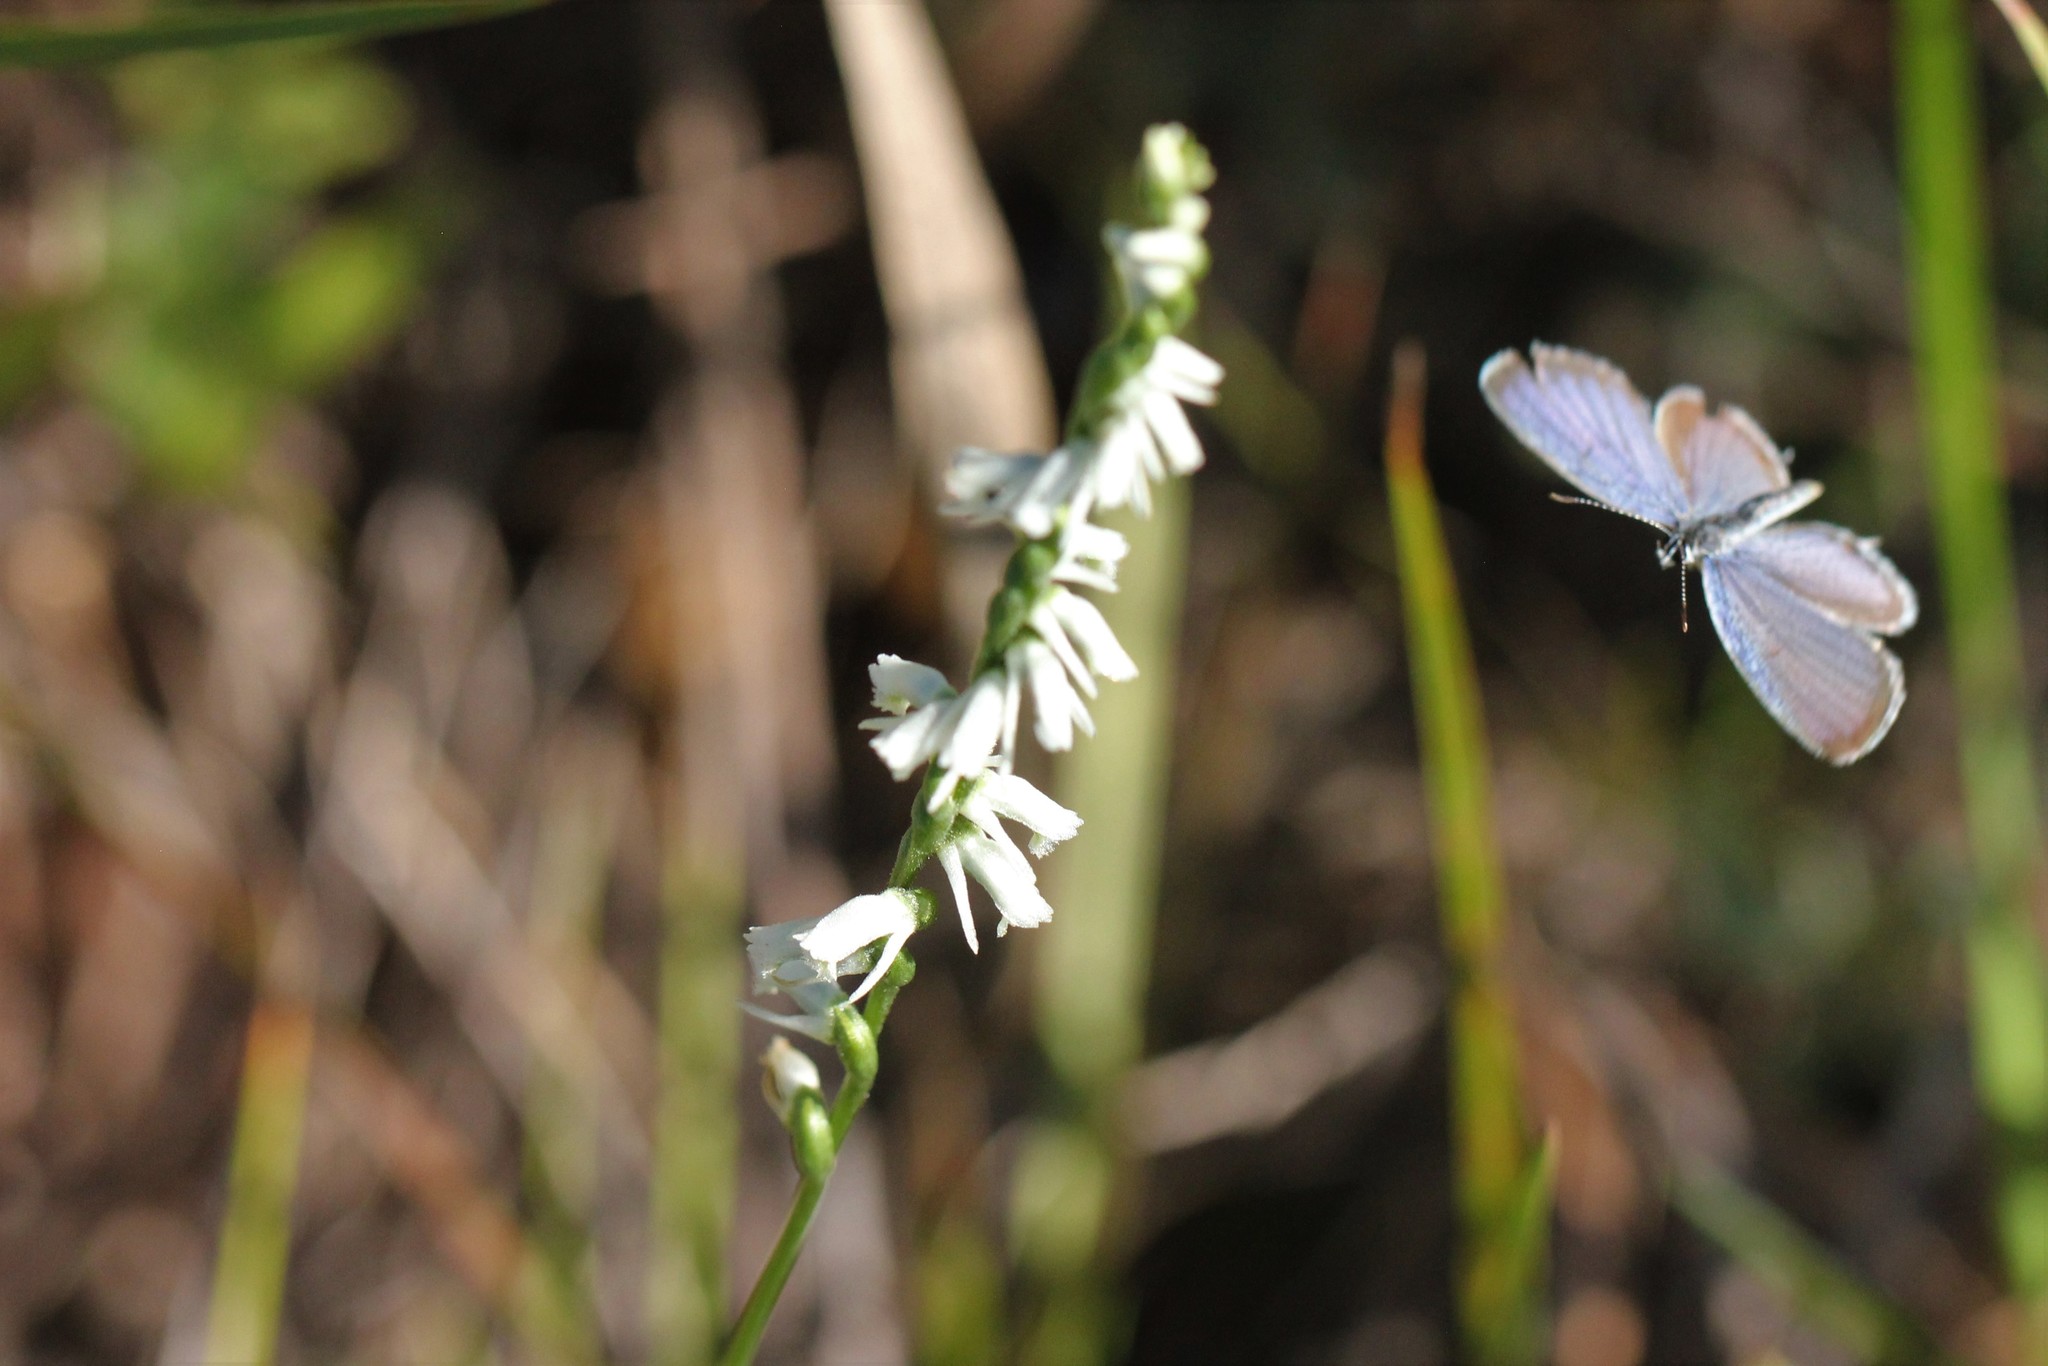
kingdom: Animalia
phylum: Arthropoda
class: Insecta
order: Lepidoptera
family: Lycaenidae
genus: Elkalyce
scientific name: Elkalyce comyntas
